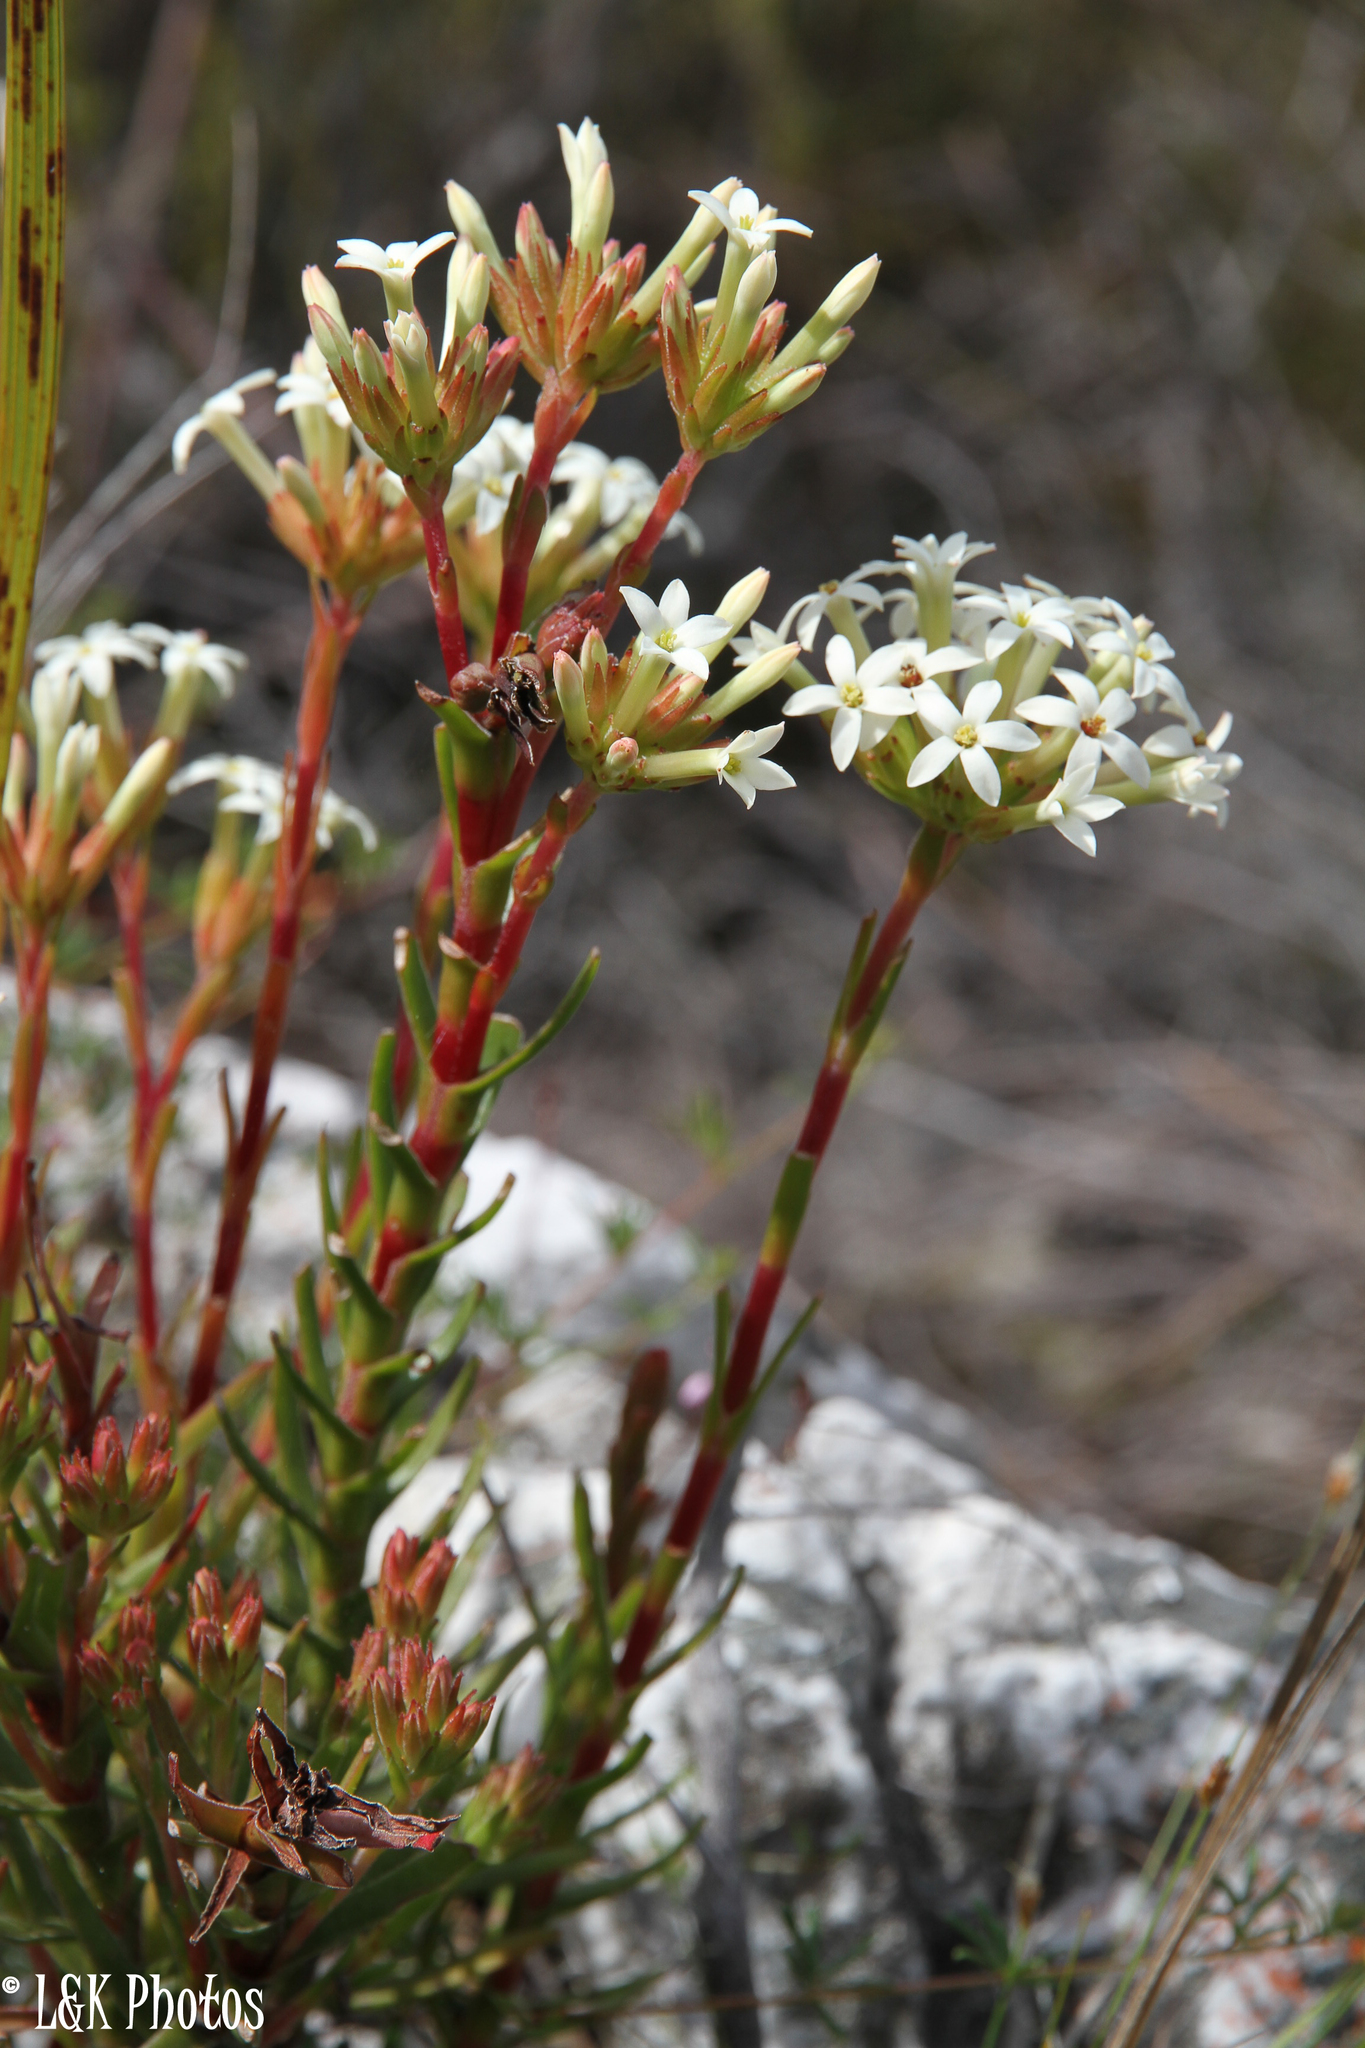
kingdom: Plantae
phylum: Tracheophyta
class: Magnoliopsida
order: Saxifragales
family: Crassulaceae
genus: Crassula
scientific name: Crassula fascicularis
